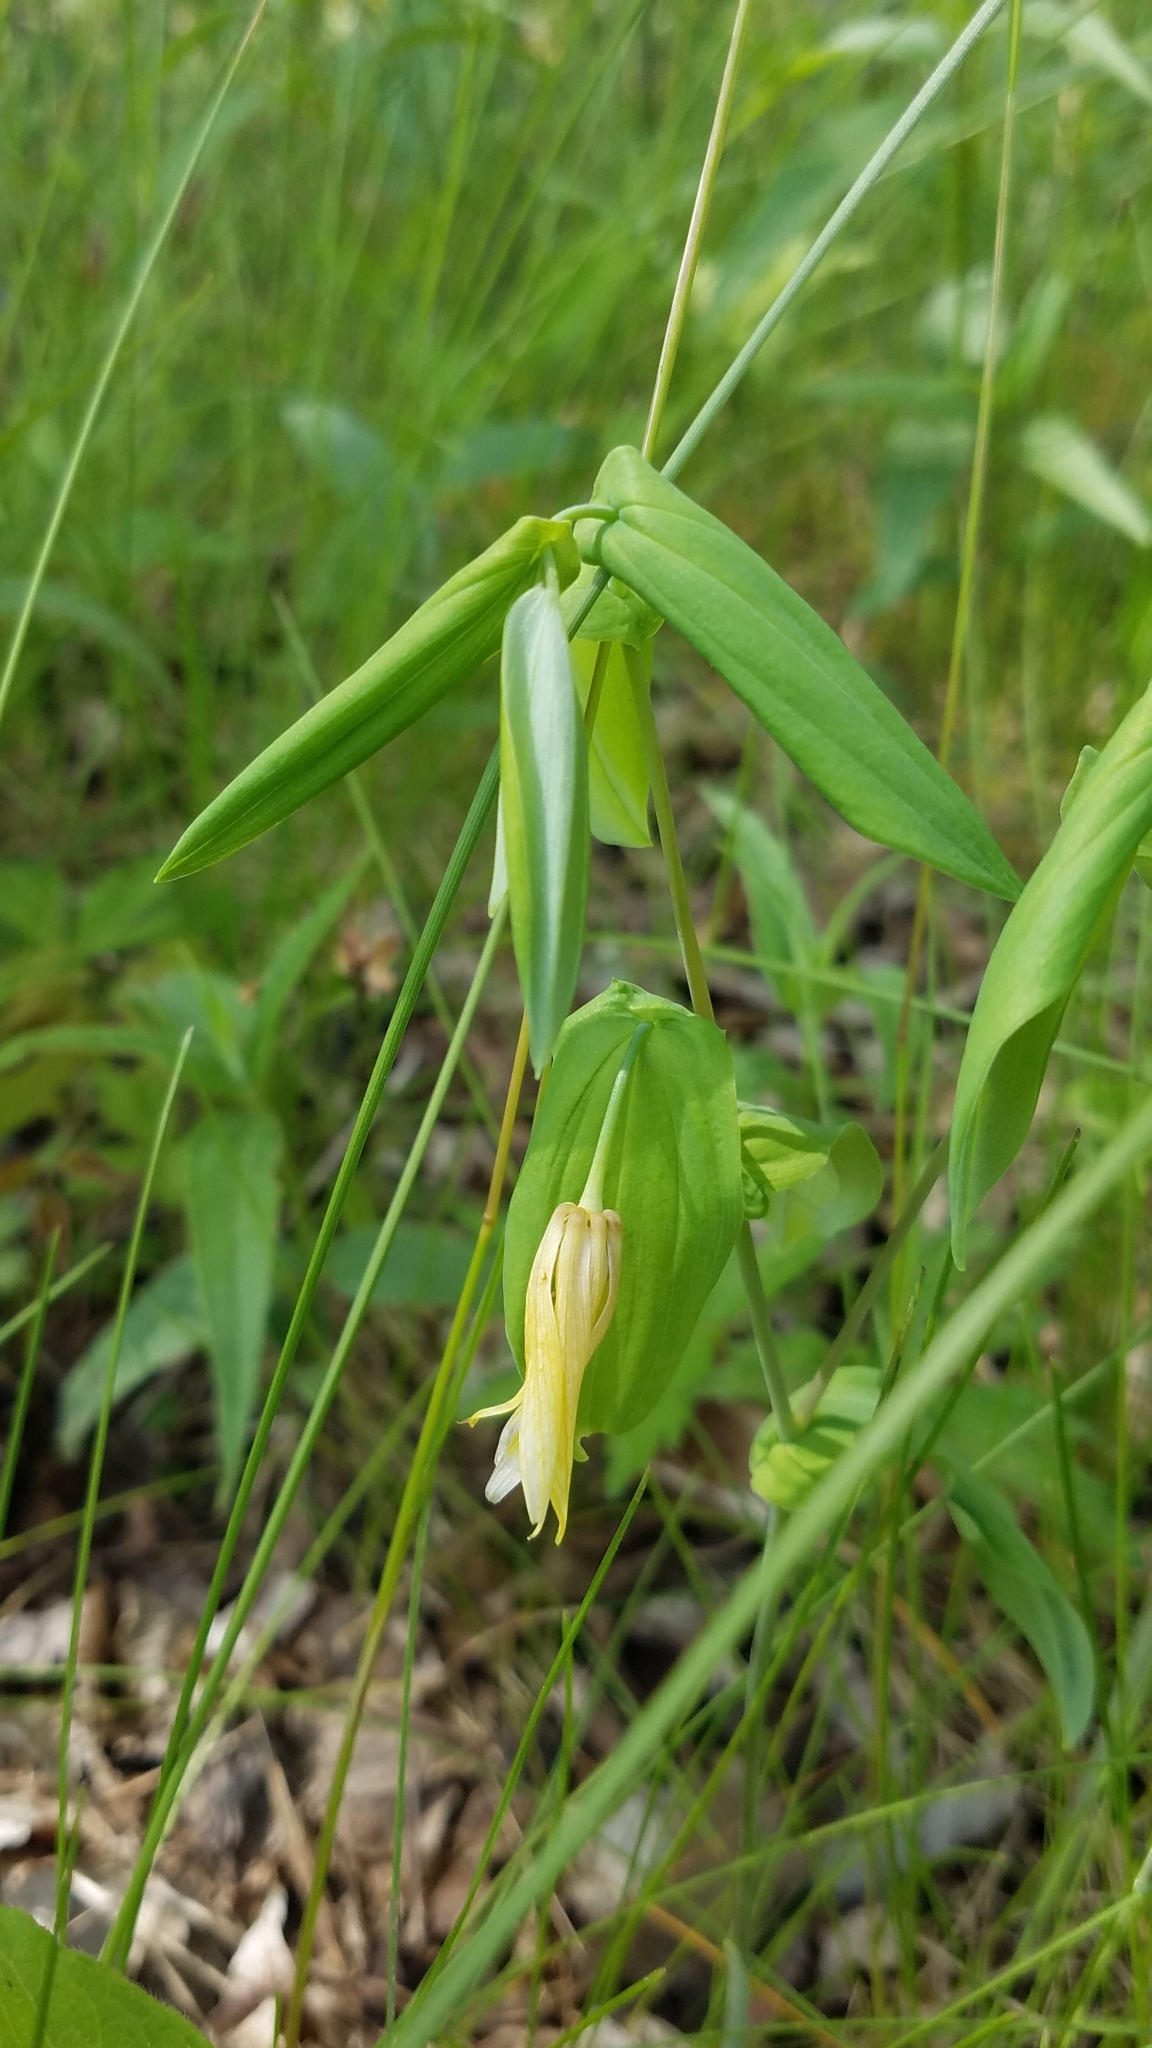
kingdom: Plantae
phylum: Tracheophyta
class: Liliopsida
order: Liliales
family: Colchicaceae
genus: Uvularia
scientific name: Uvularia grandiflora
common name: Bellwort
